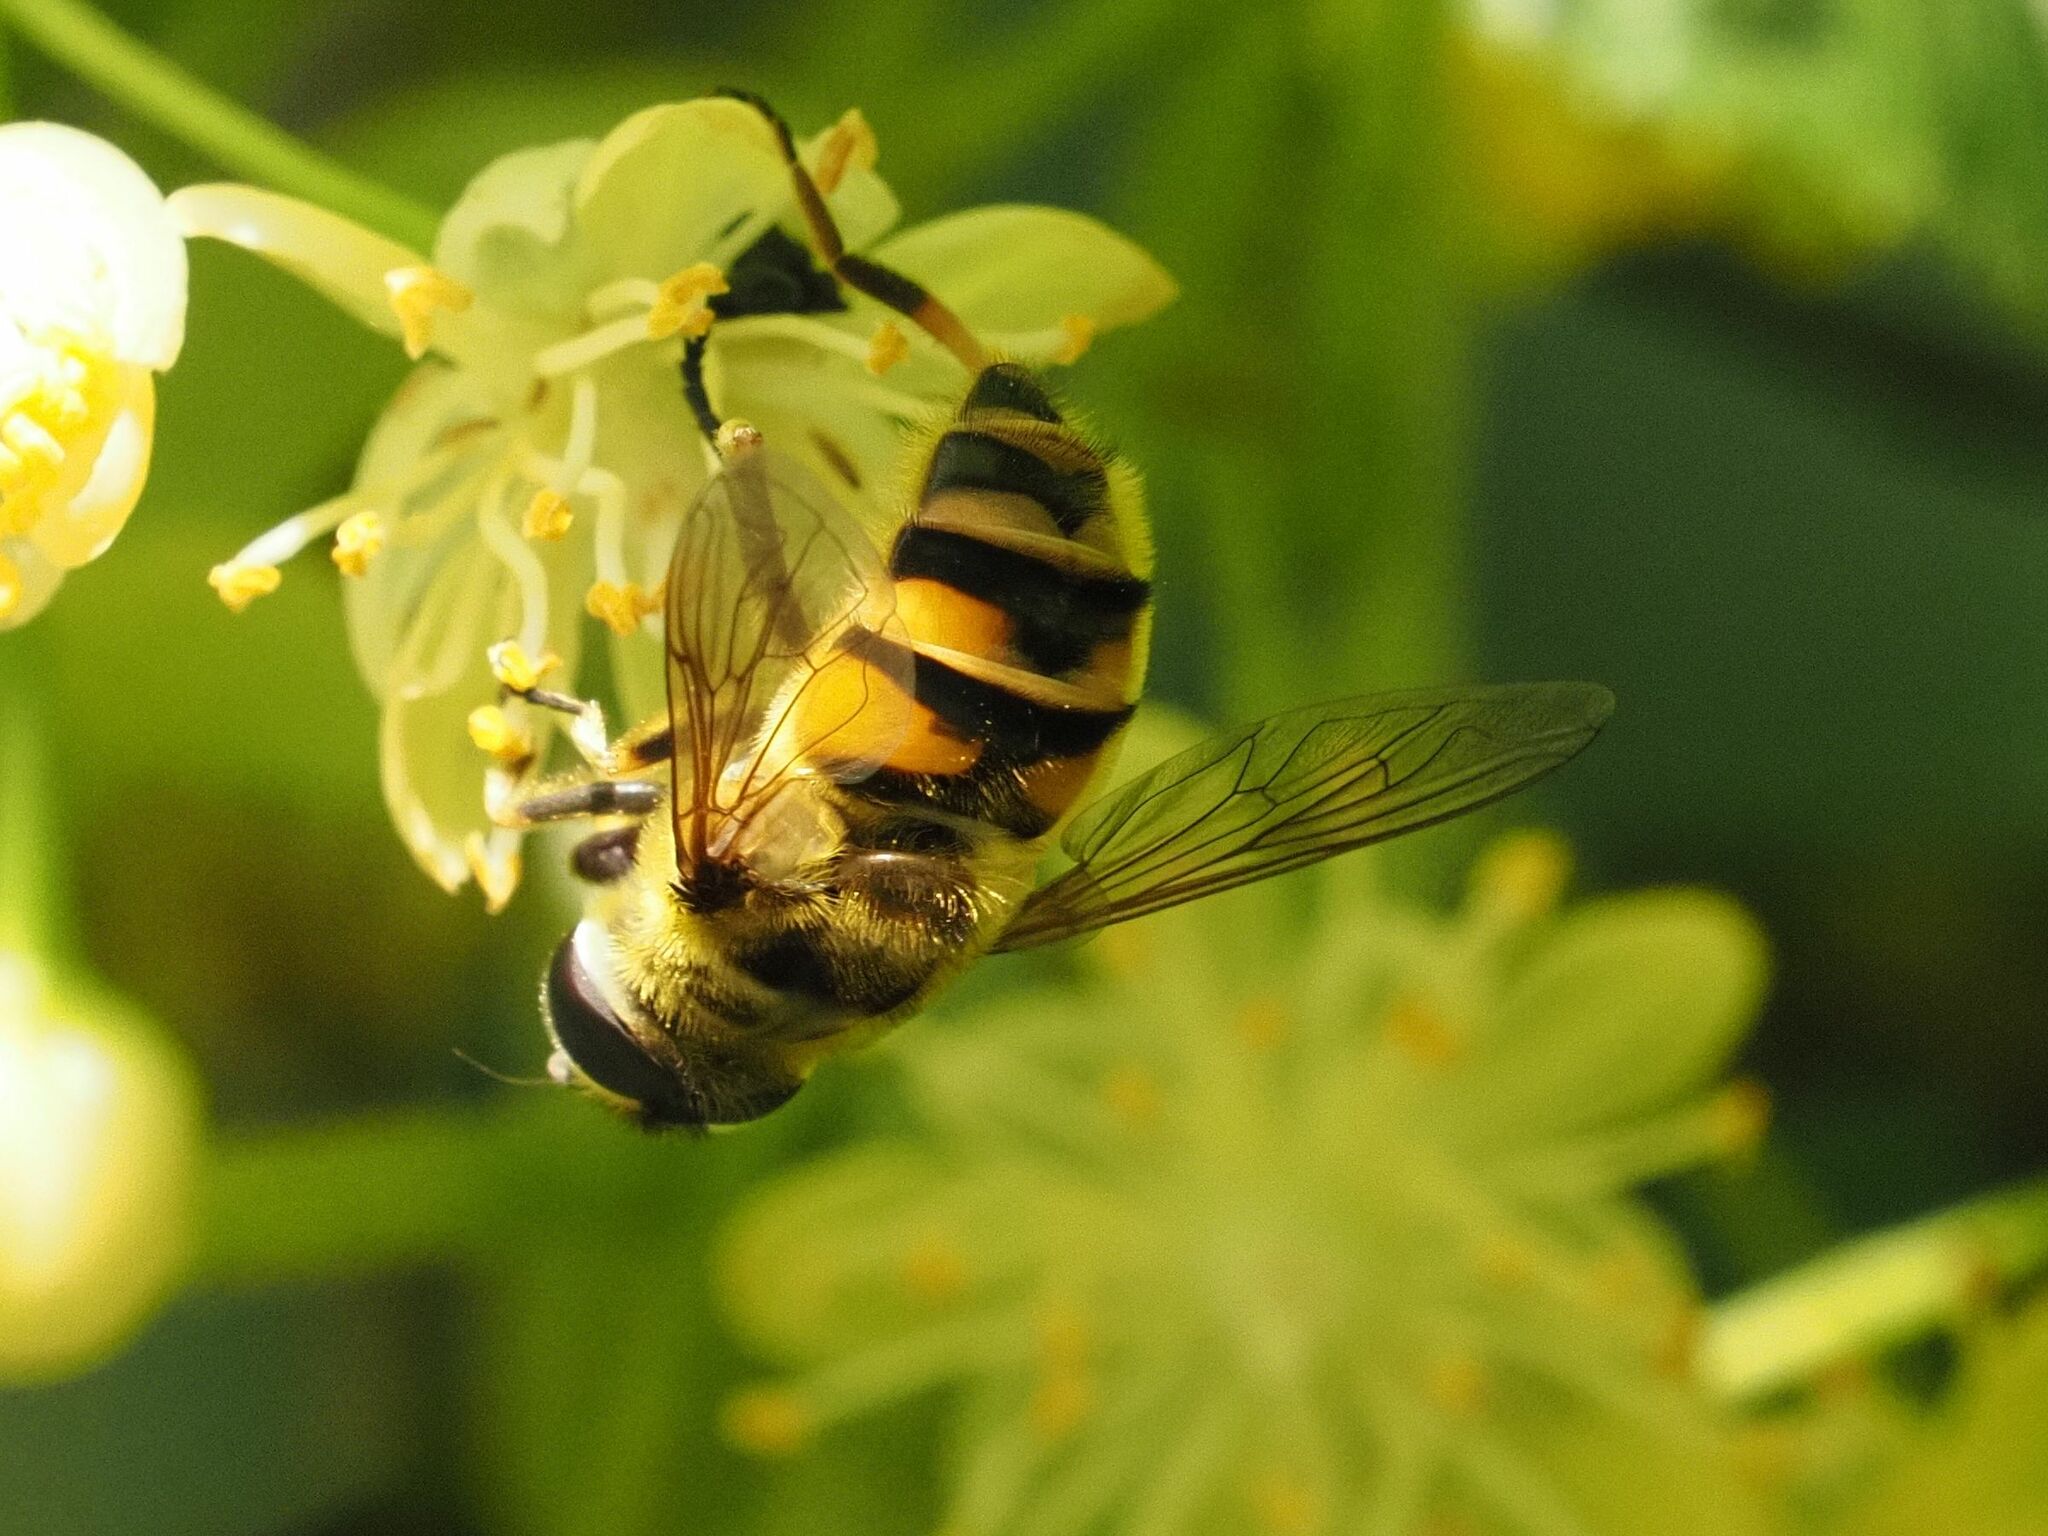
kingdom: Animalia
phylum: Arthropoda
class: Insecta
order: Diptera
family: Syrphidae
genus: Myathropa
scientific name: Myathropa florea
